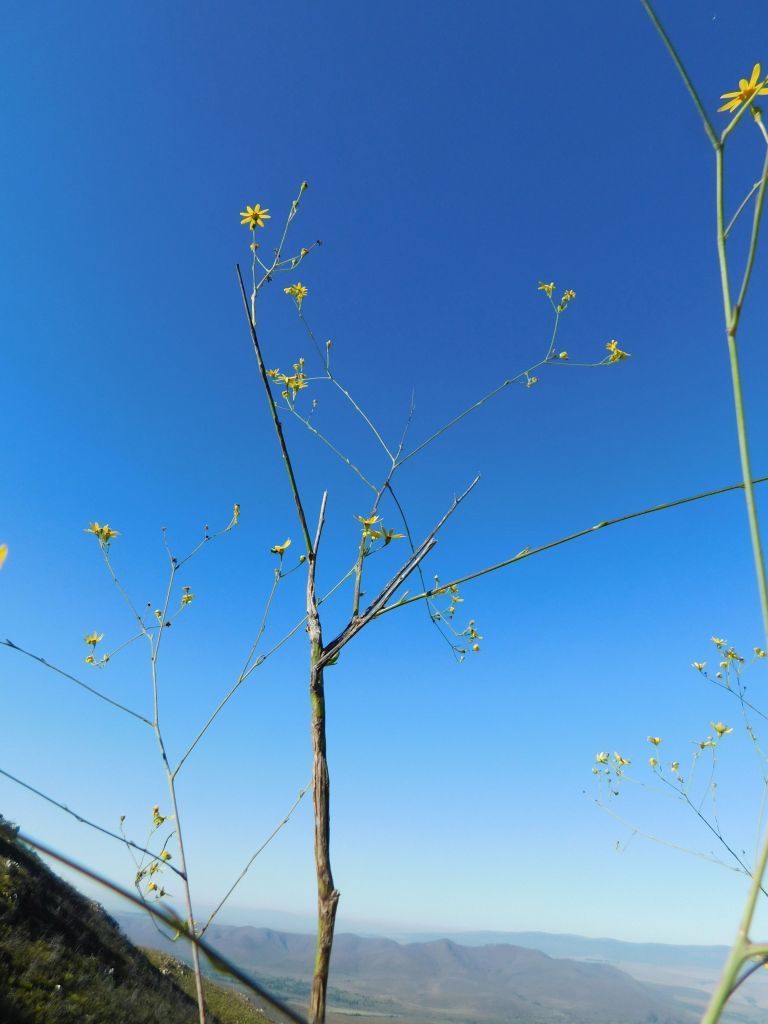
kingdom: Plantae
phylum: Tracheophyta
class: Magnoliopsida
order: Asterales
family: Asteraceae
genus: Othonna
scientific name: Othonna quinquedentata
